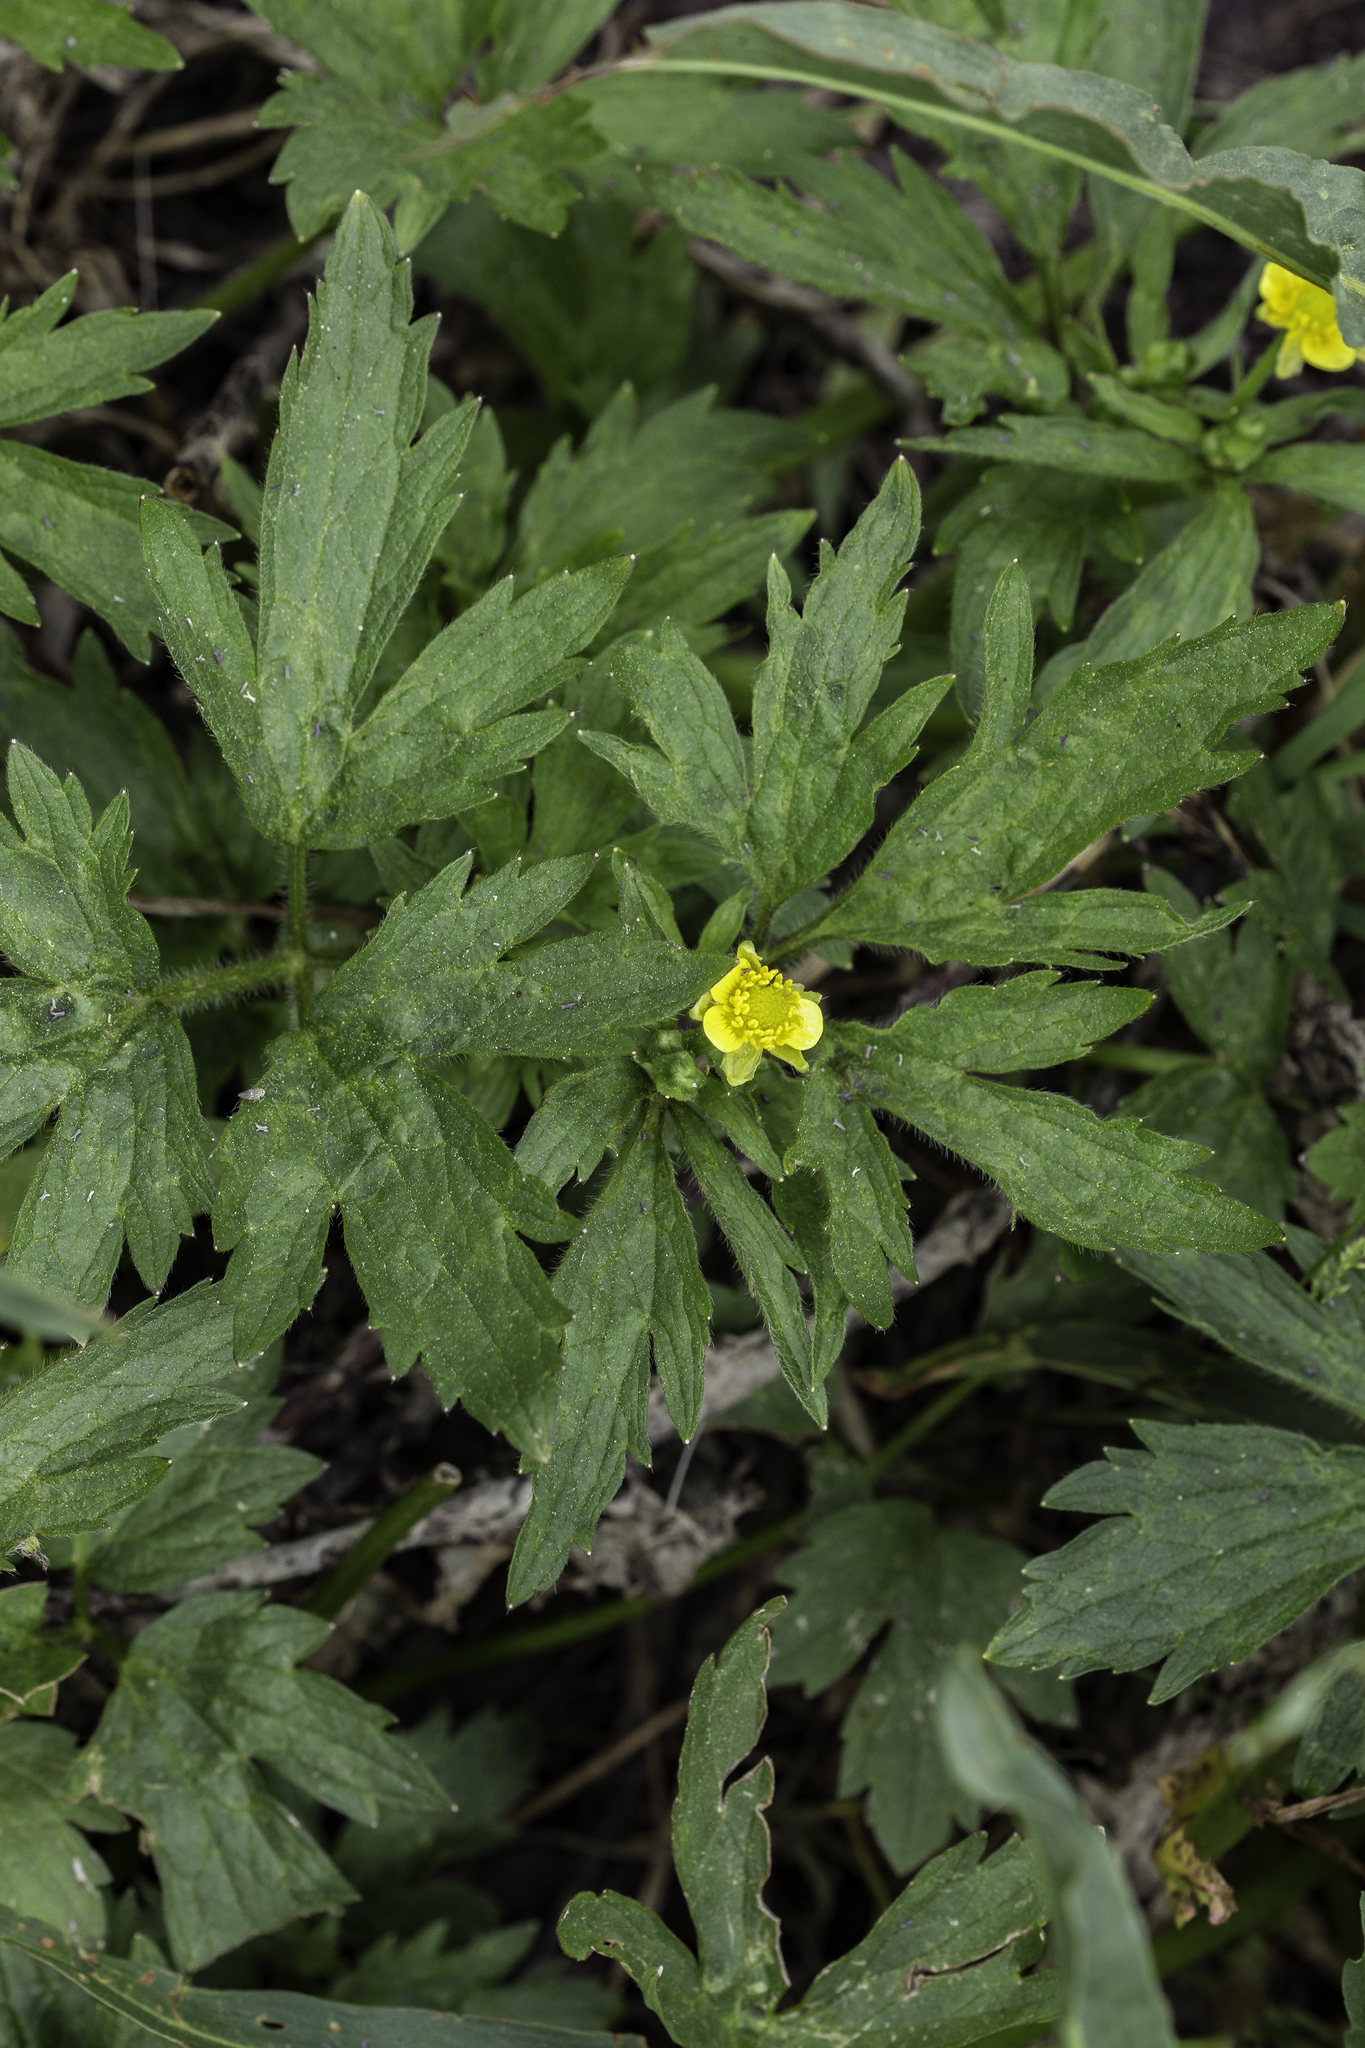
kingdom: Plantae
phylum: Tracheophyta
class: Magnoliopsida
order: Ranunculales
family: Ranunculaceae
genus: Ranunculus
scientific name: Ranunculus macounii
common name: Macoun's buttercup
